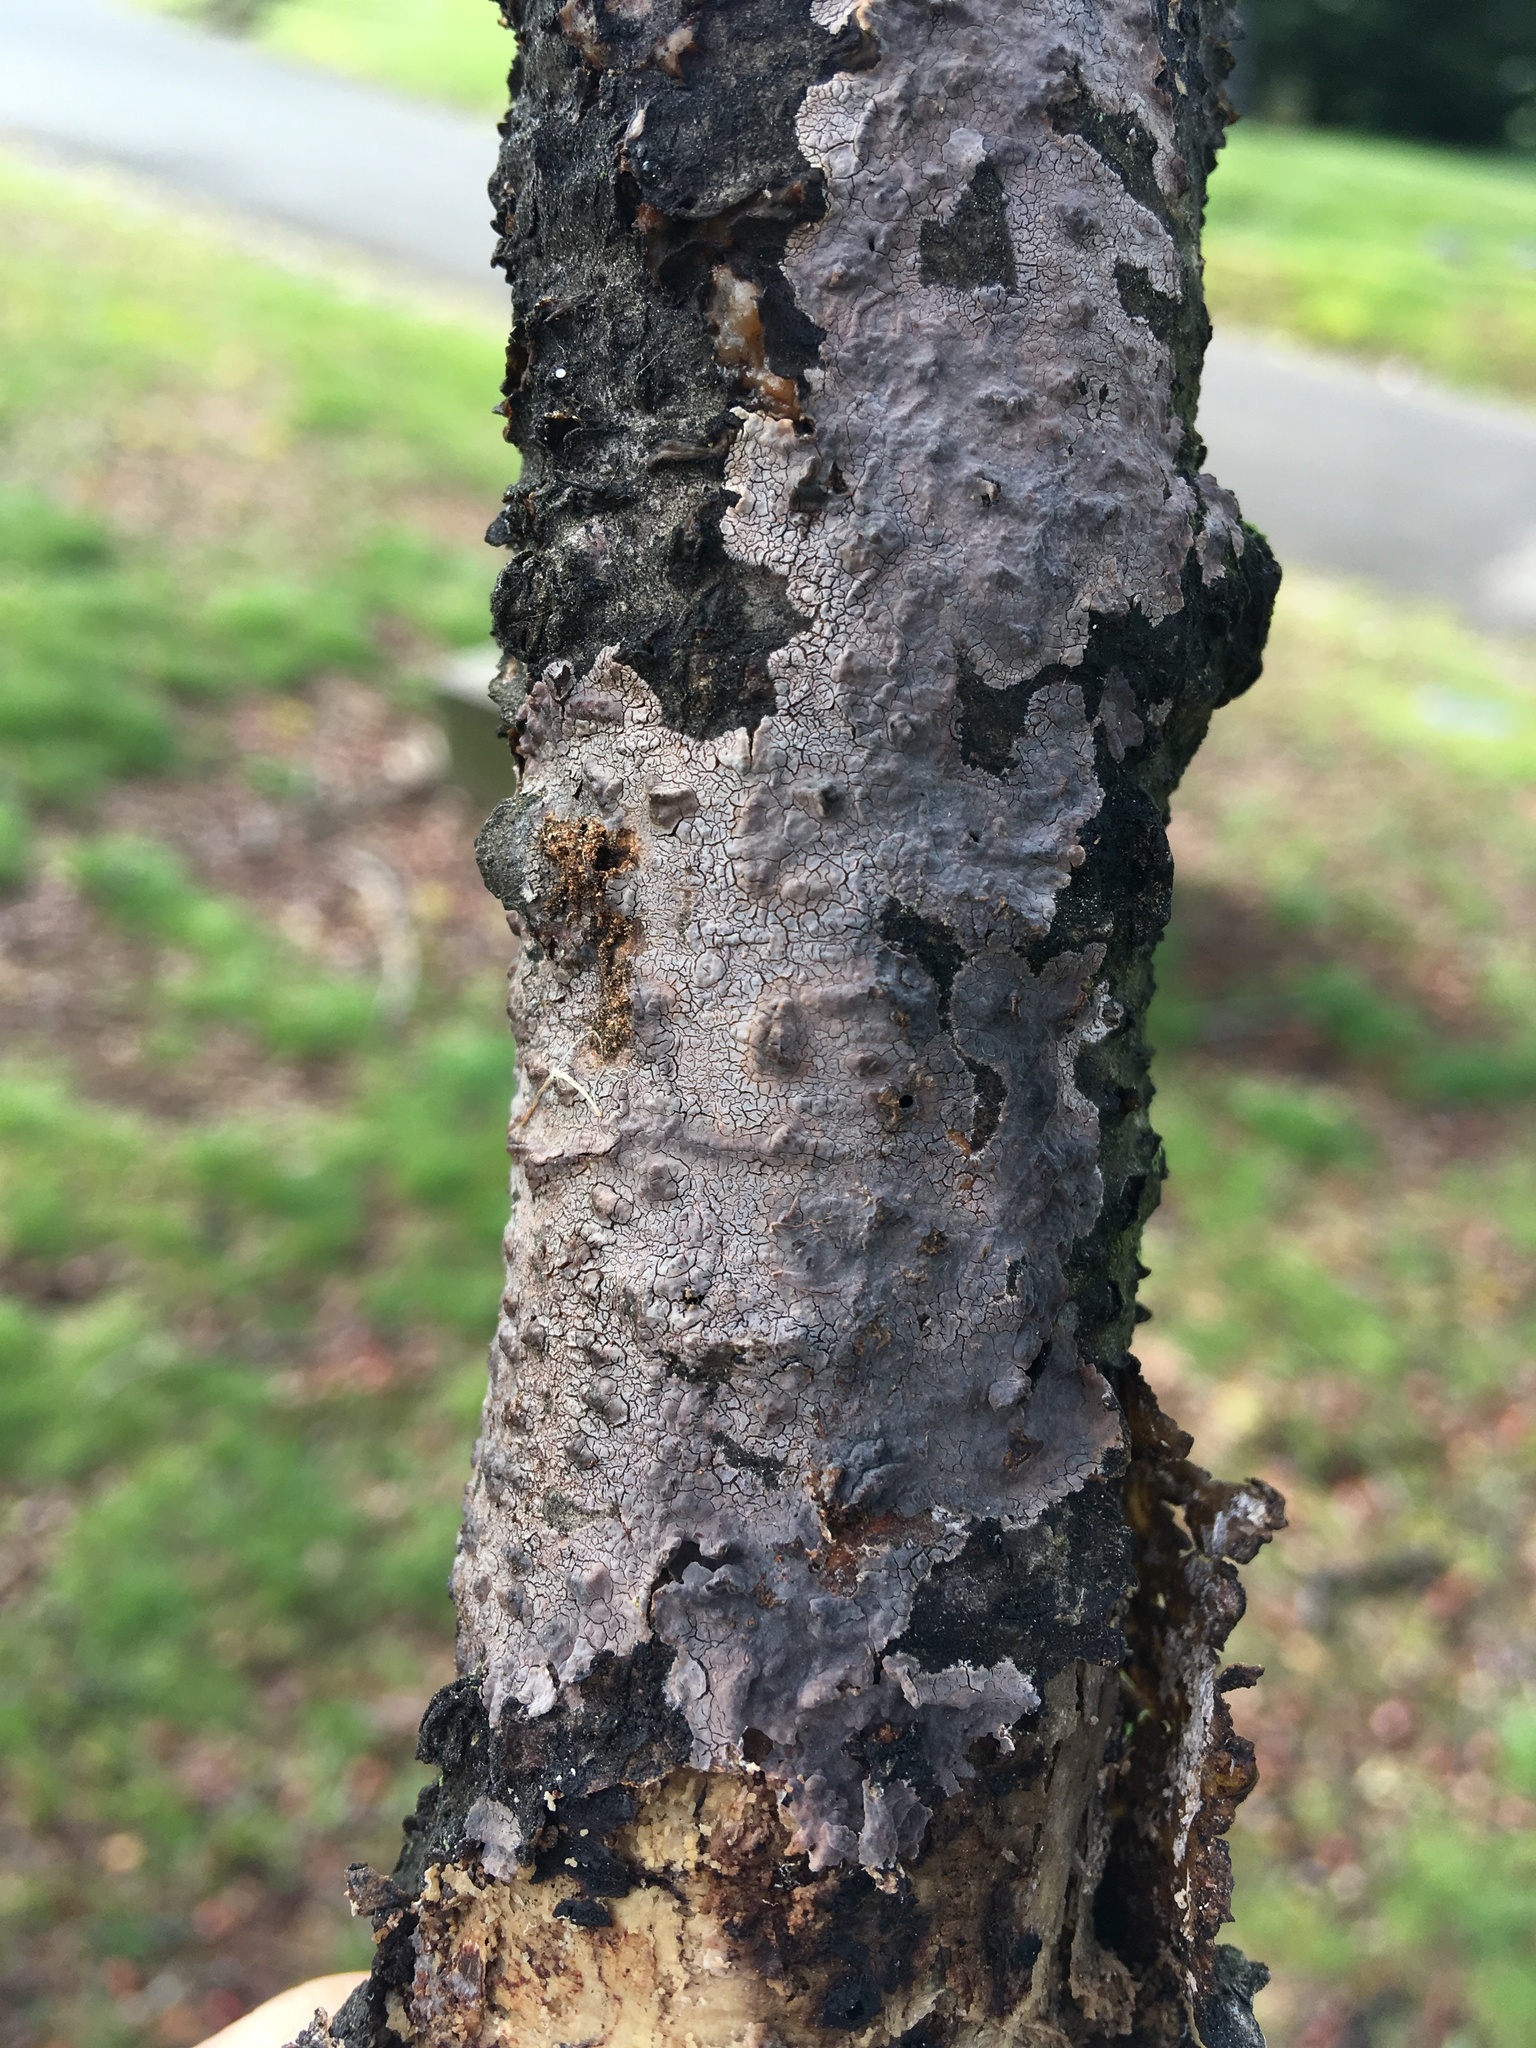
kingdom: Fungi
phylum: Basidiomycota
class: Agaricomycetes
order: Russulales
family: Peniophoraceae
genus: Peniophora
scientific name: Peniophora albobadia
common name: Giraffe spots
